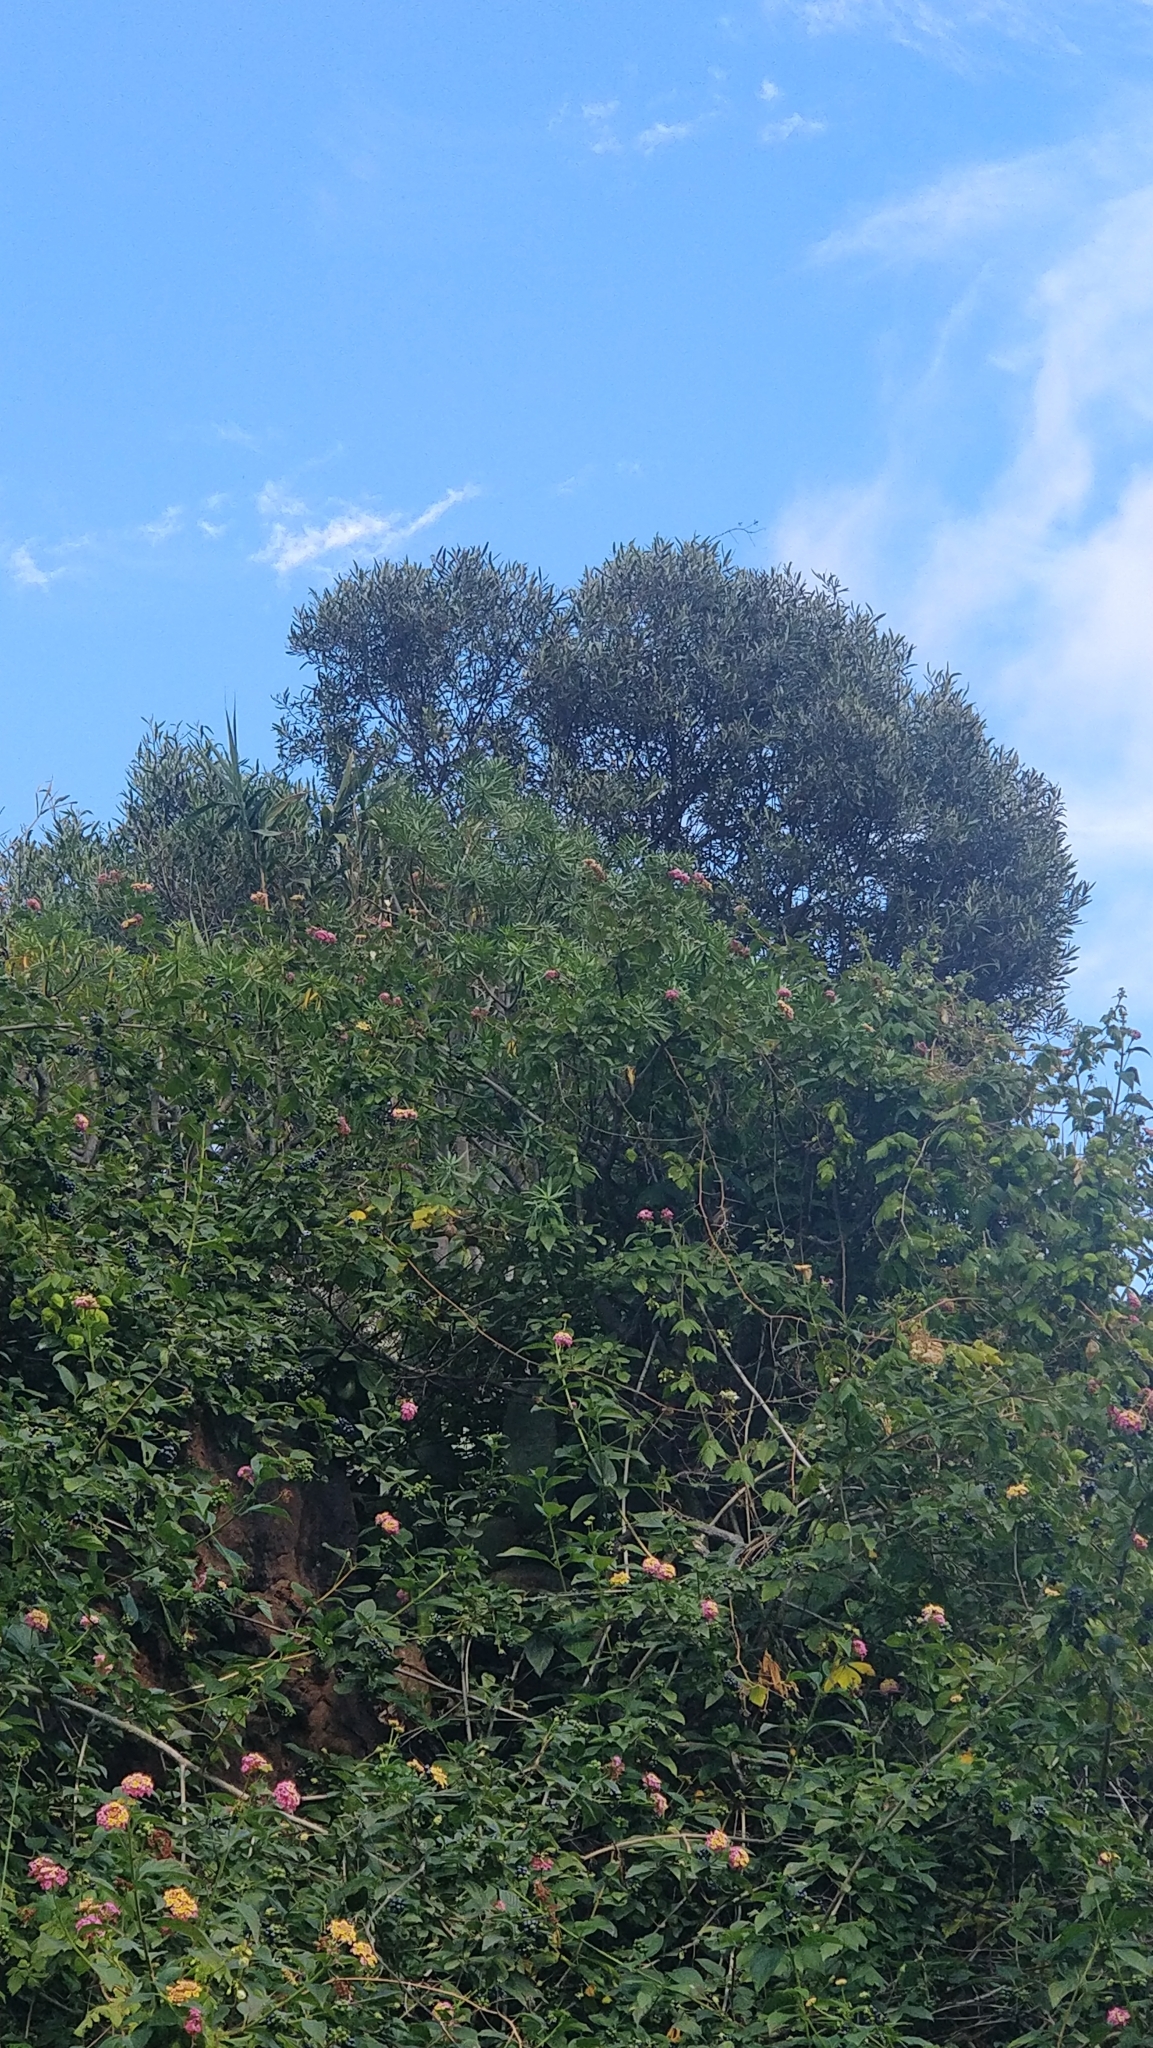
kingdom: Plantae
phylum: Tracheophyta
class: Magnoliopsida
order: Lamiales
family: Oleaceae
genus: Olea
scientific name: Olea europaea
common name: Olive
